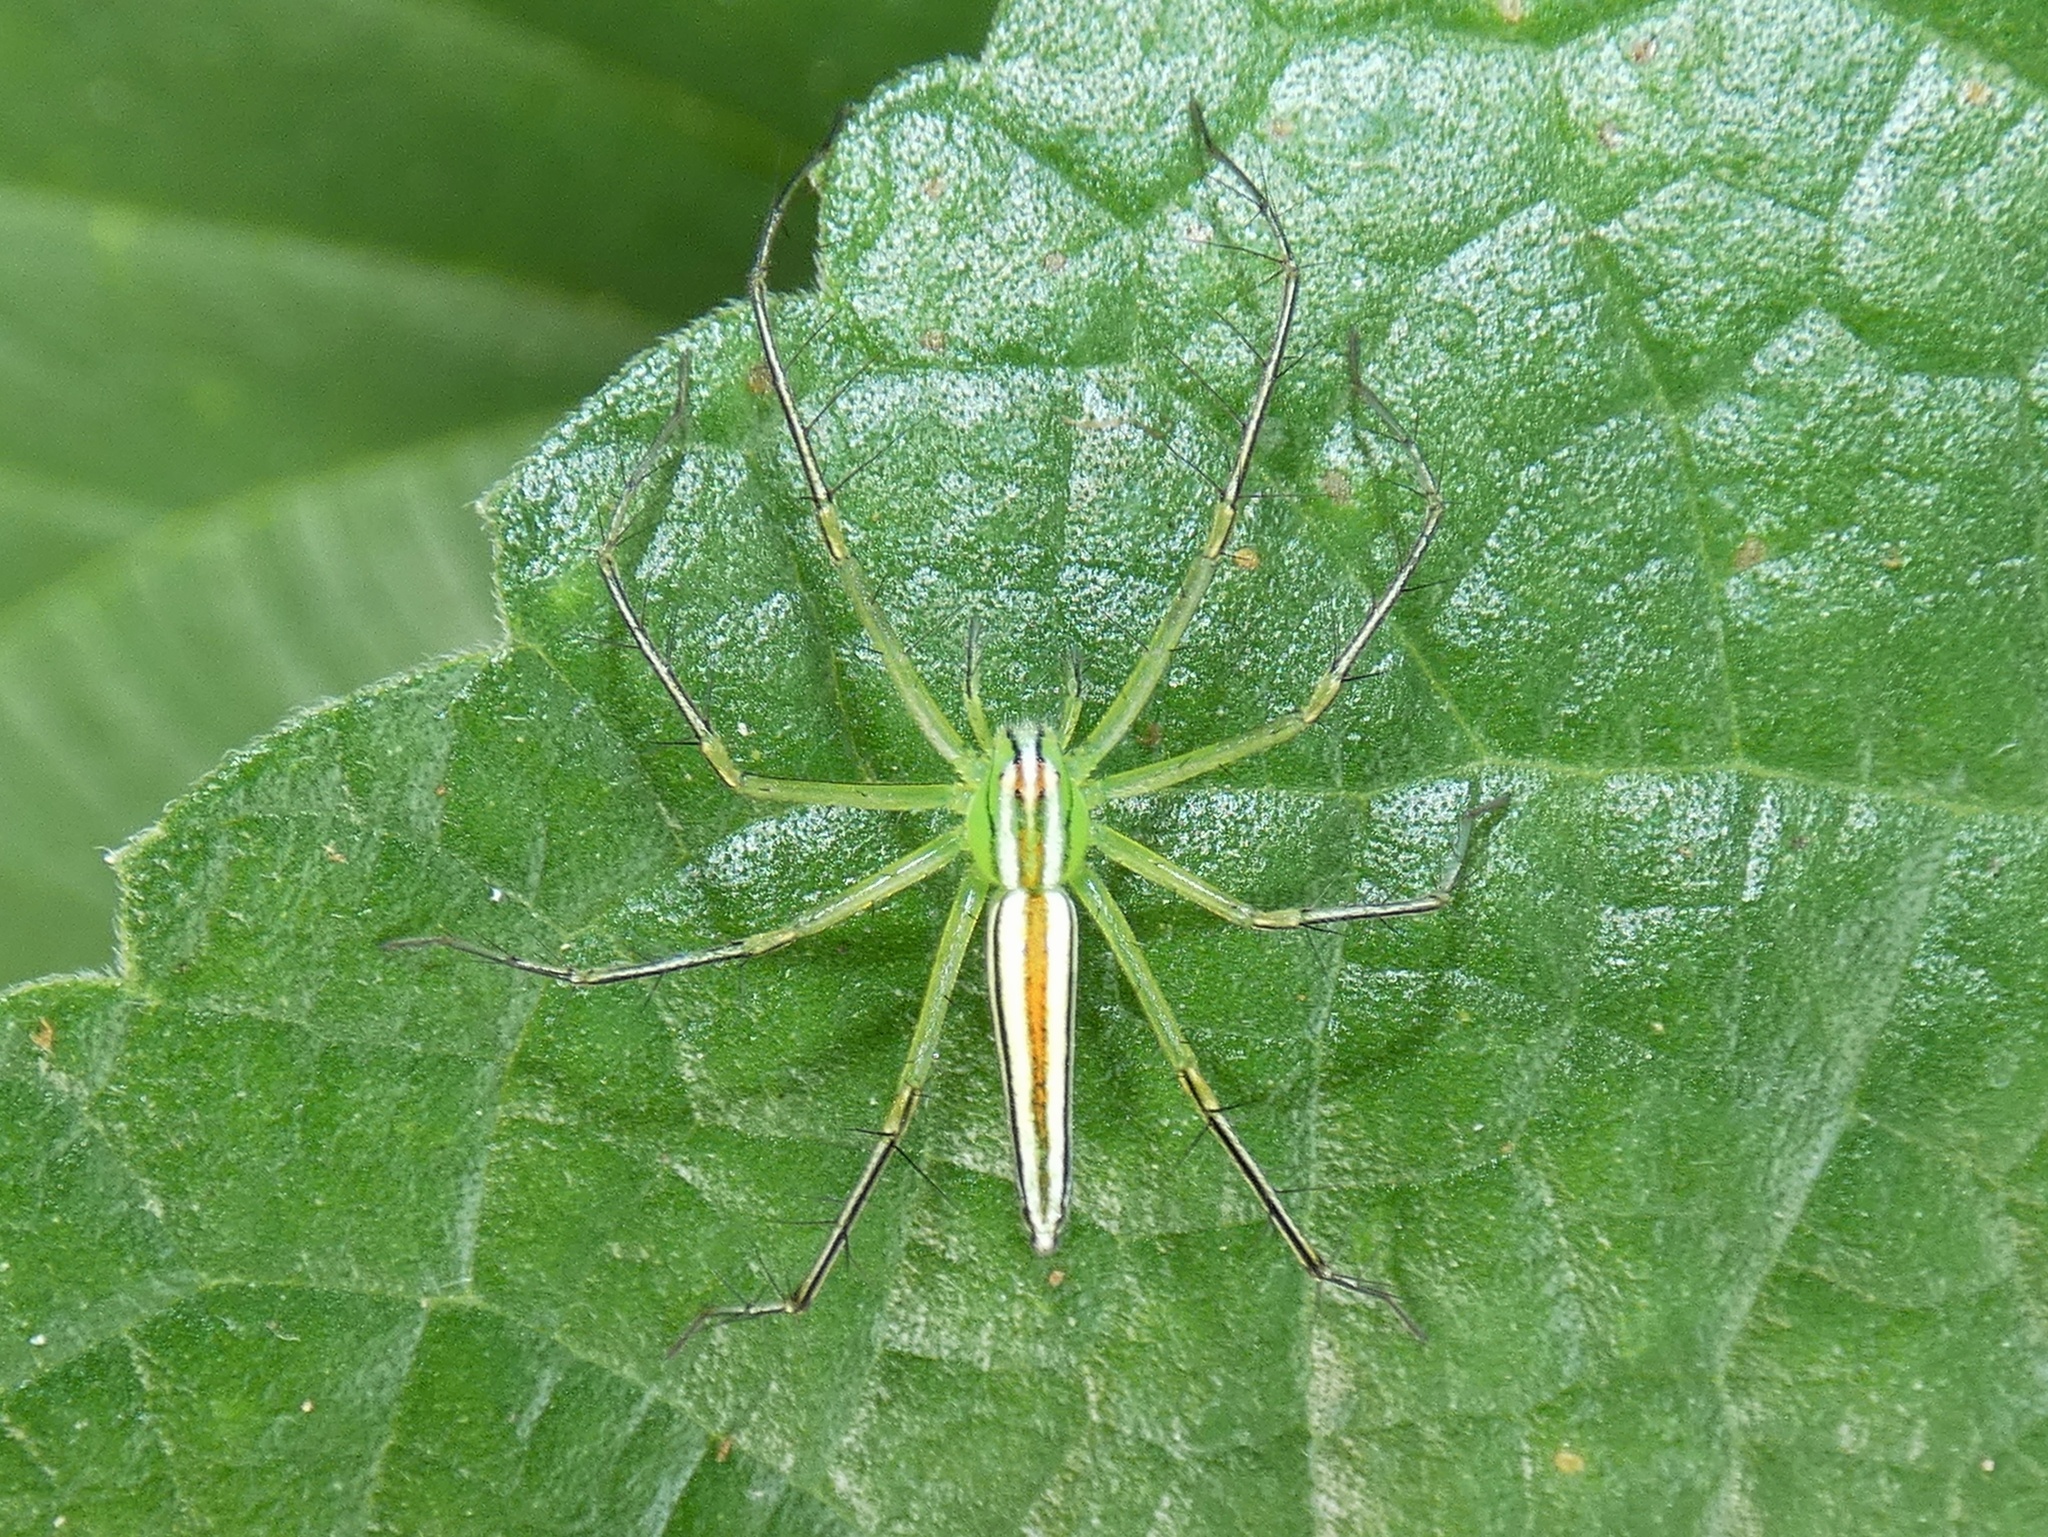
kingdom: Animalia
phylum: Arthropoda
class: Arachnida
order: Araneae
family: Oxyopidae
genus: Oxyopes
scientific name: Oxyopes macilentus
